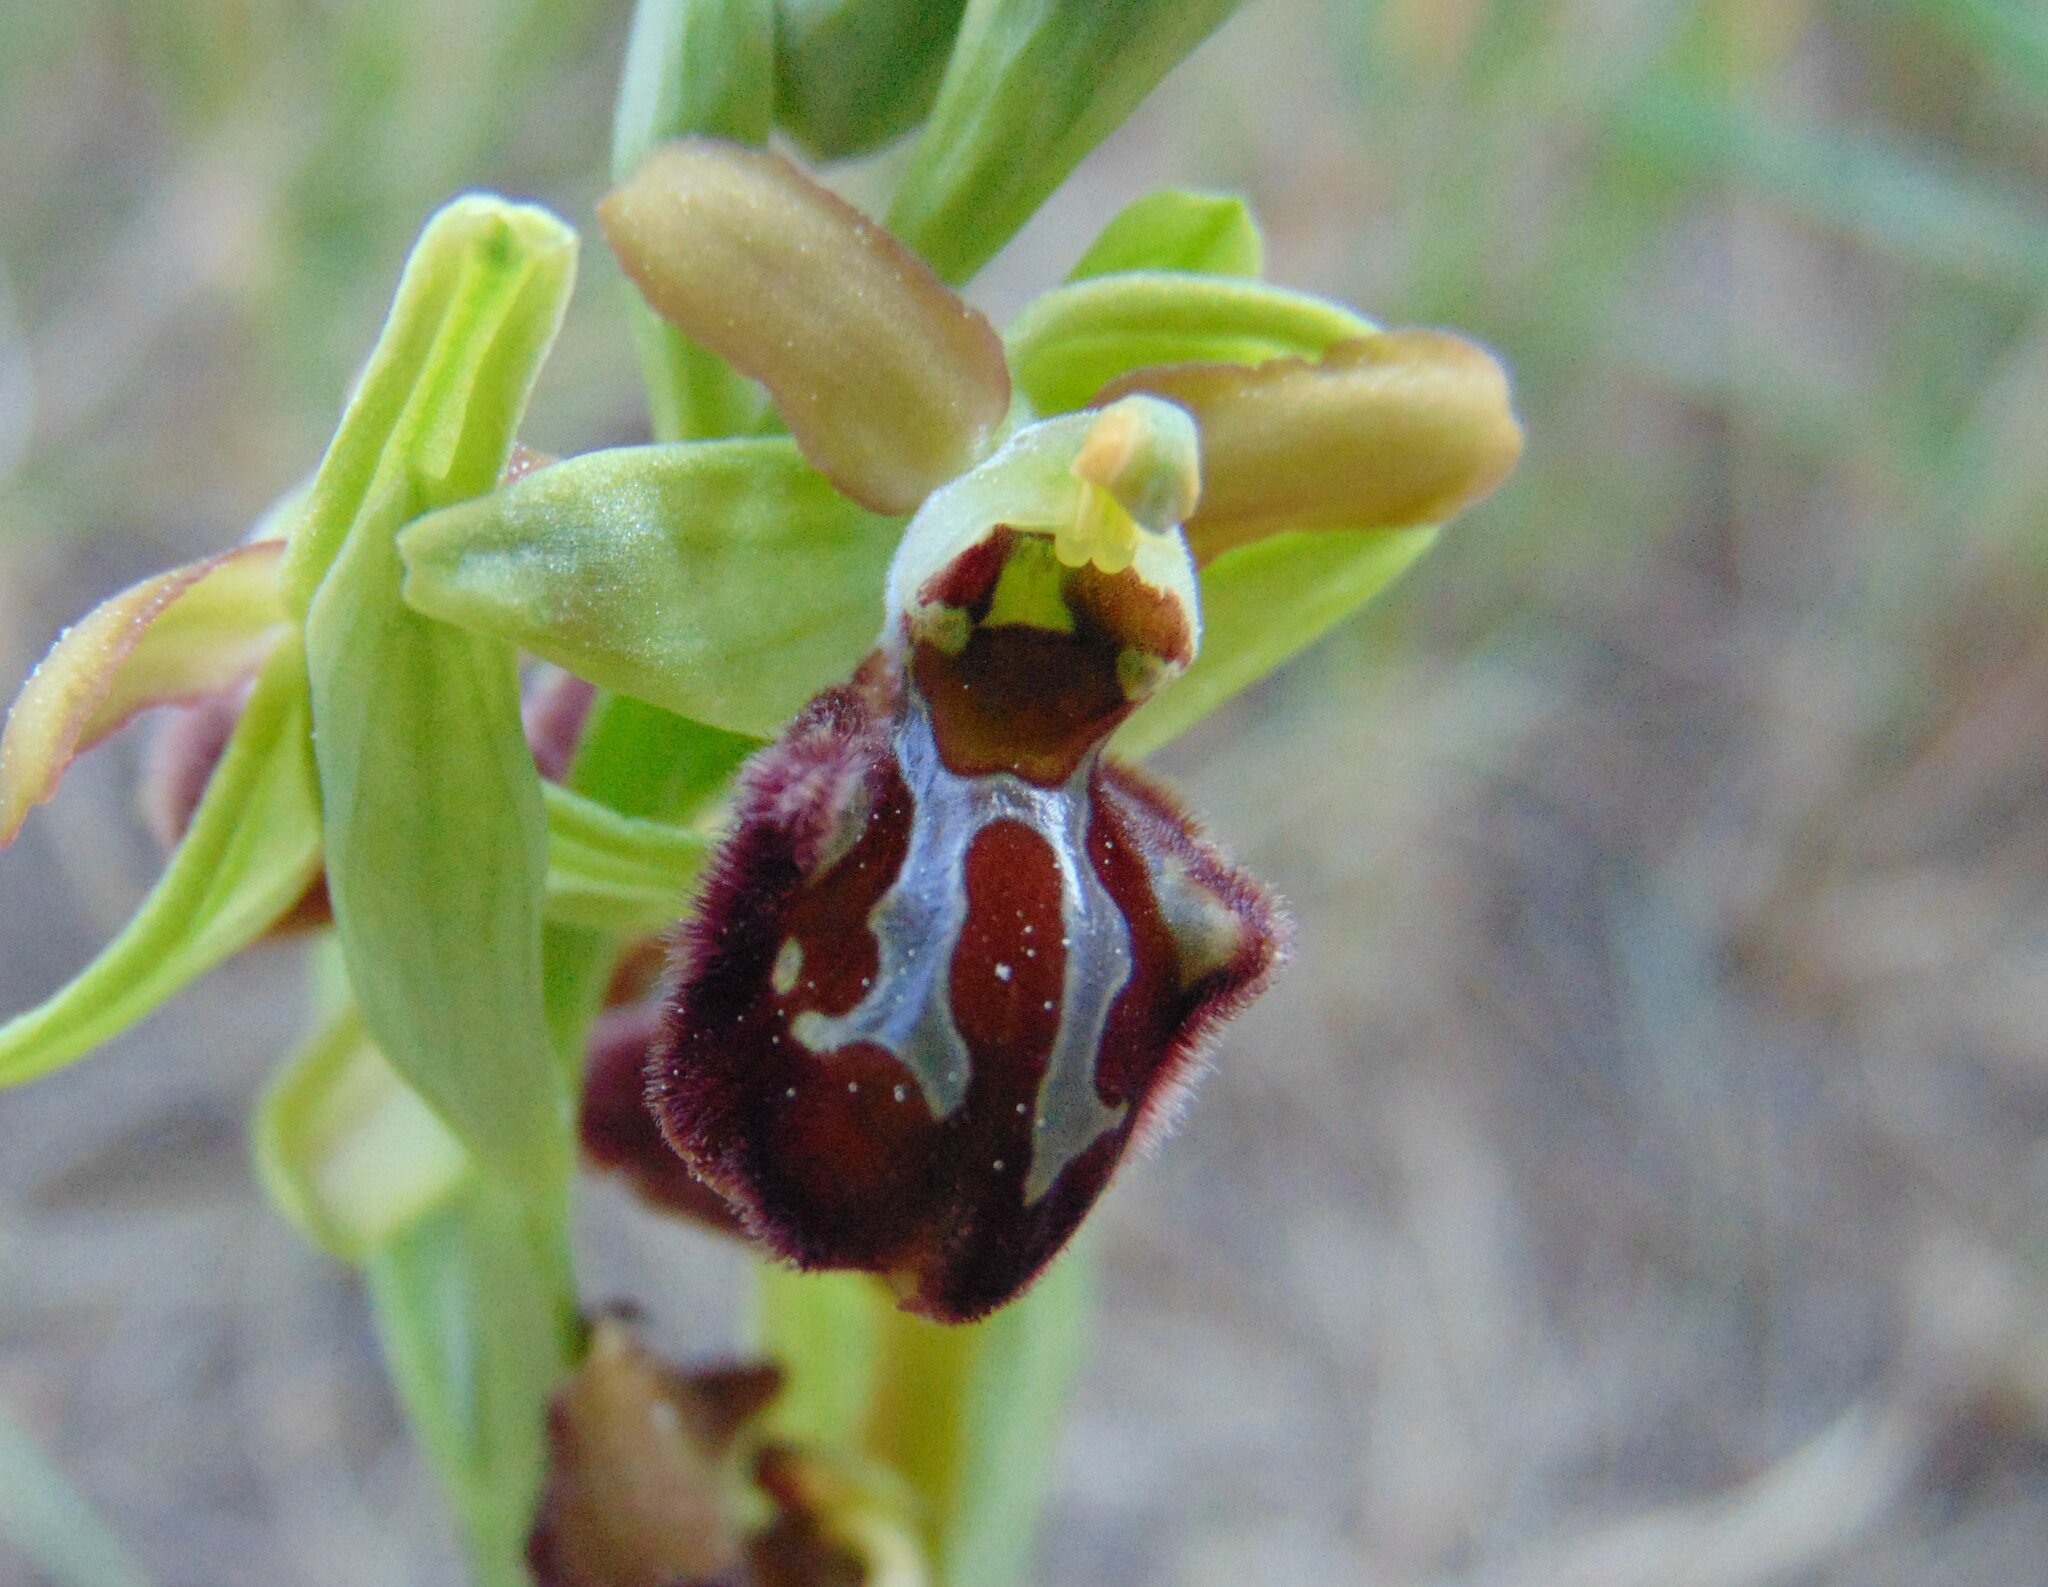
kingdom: Plantae
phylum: Tracheophyta
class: Liliopsida
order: Asparagales
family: Orchidaceae
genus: Ophrys
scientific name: Ophrys sphegodes
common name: Early spider-orchid
